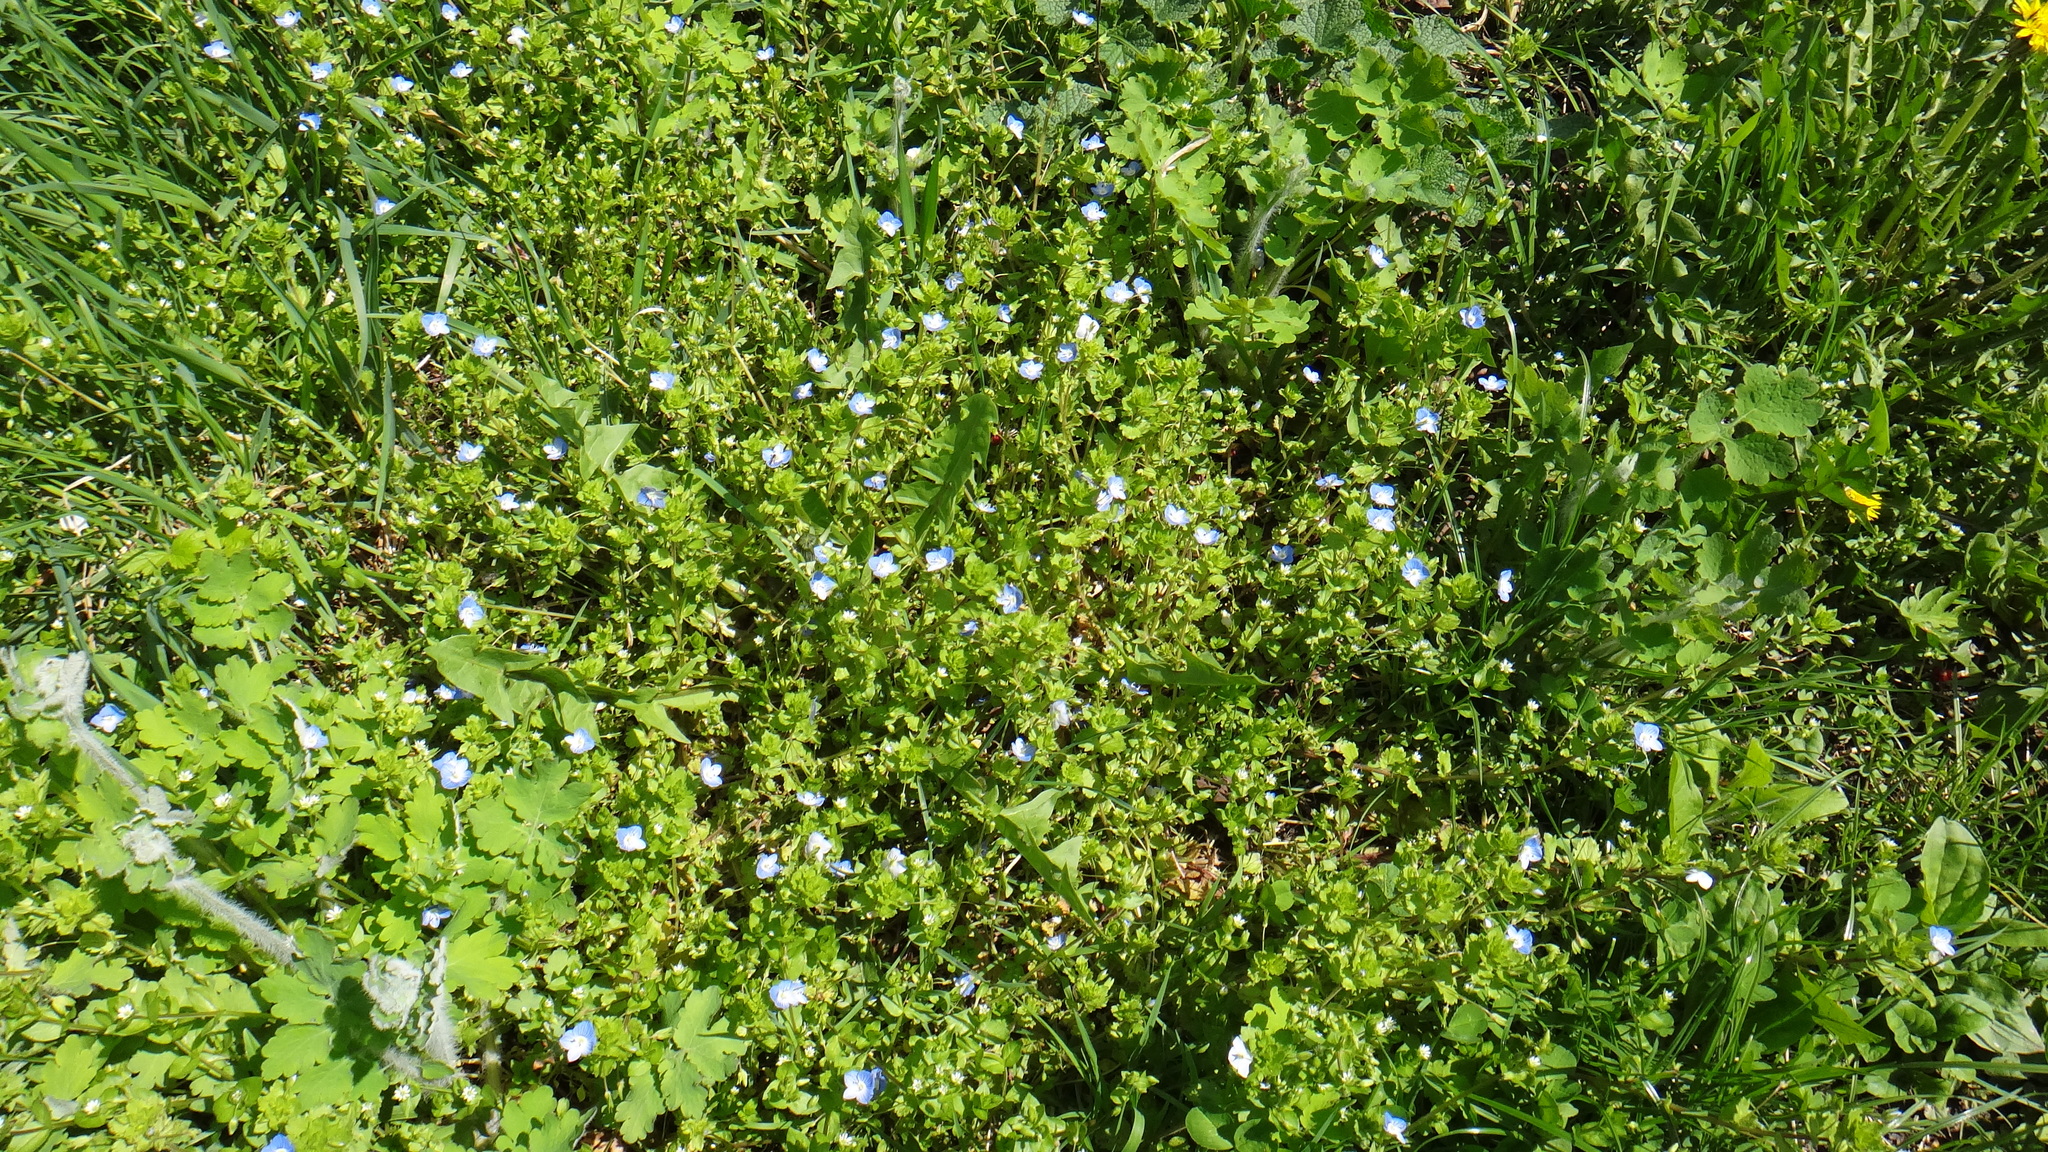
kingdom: Plantae
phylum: Tracheophyta
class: Magnoliopsida
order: Lamiales
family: Plantaginaceae
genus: Veronica
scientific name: Veronica persica
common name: Common field-speedwell
